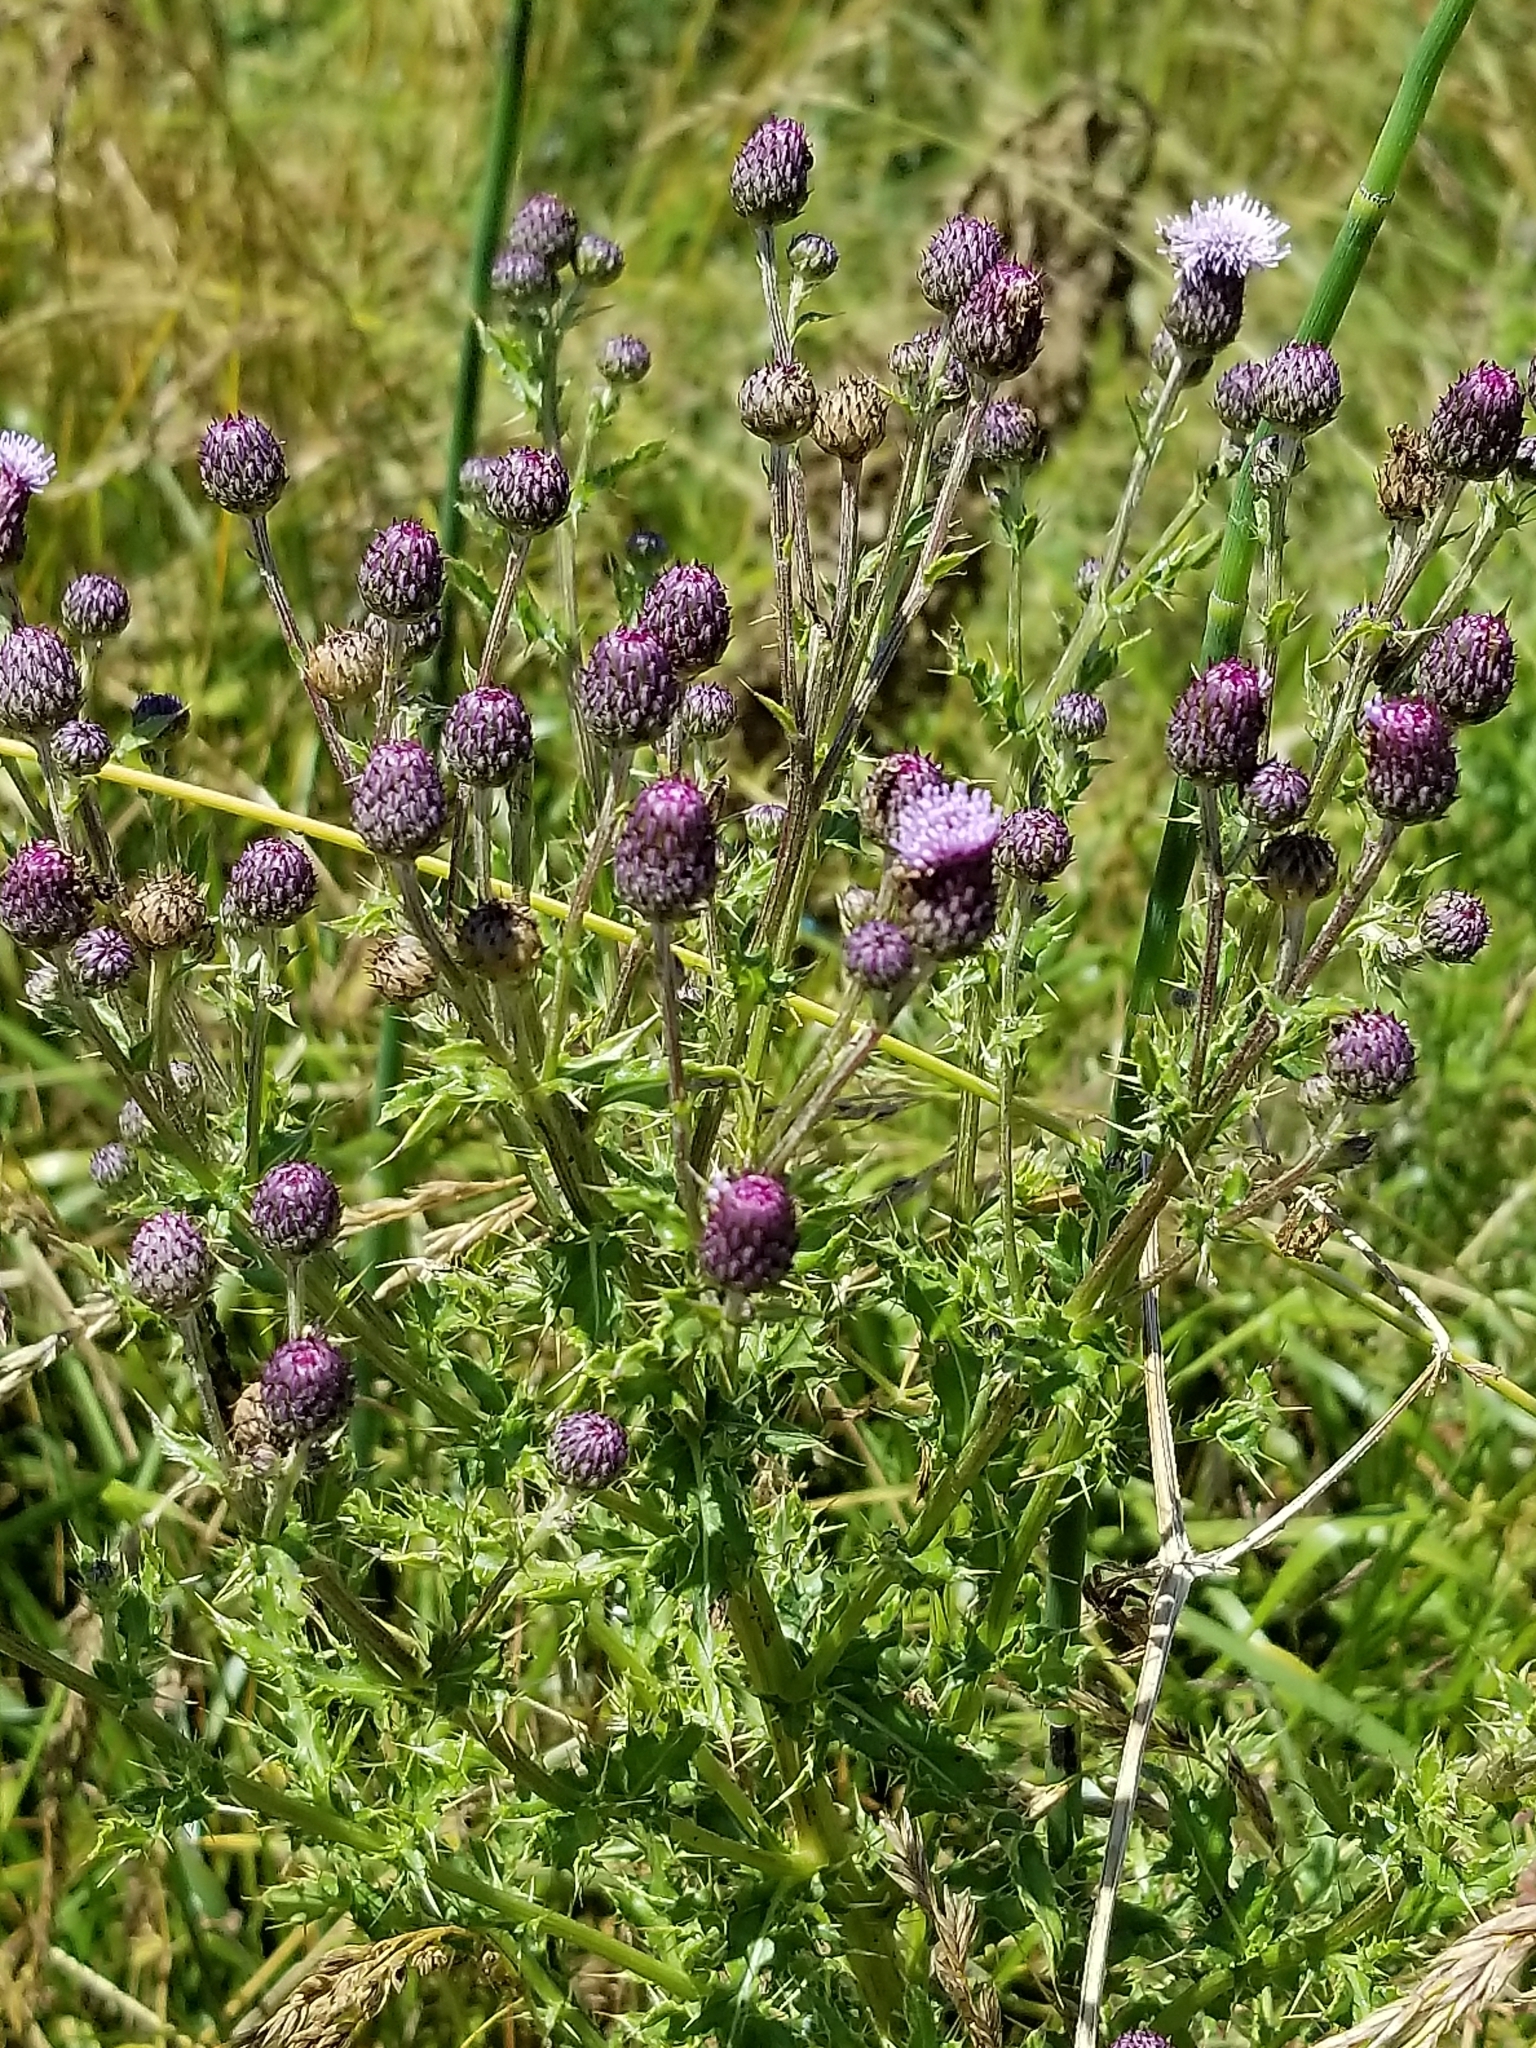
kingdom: Plantae
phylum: Tracheophyta
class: Magnoliopsida
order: Asterales
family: Asteraceae
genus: Cirsium
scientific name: Cirsium arvense
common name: Creeping thistle
